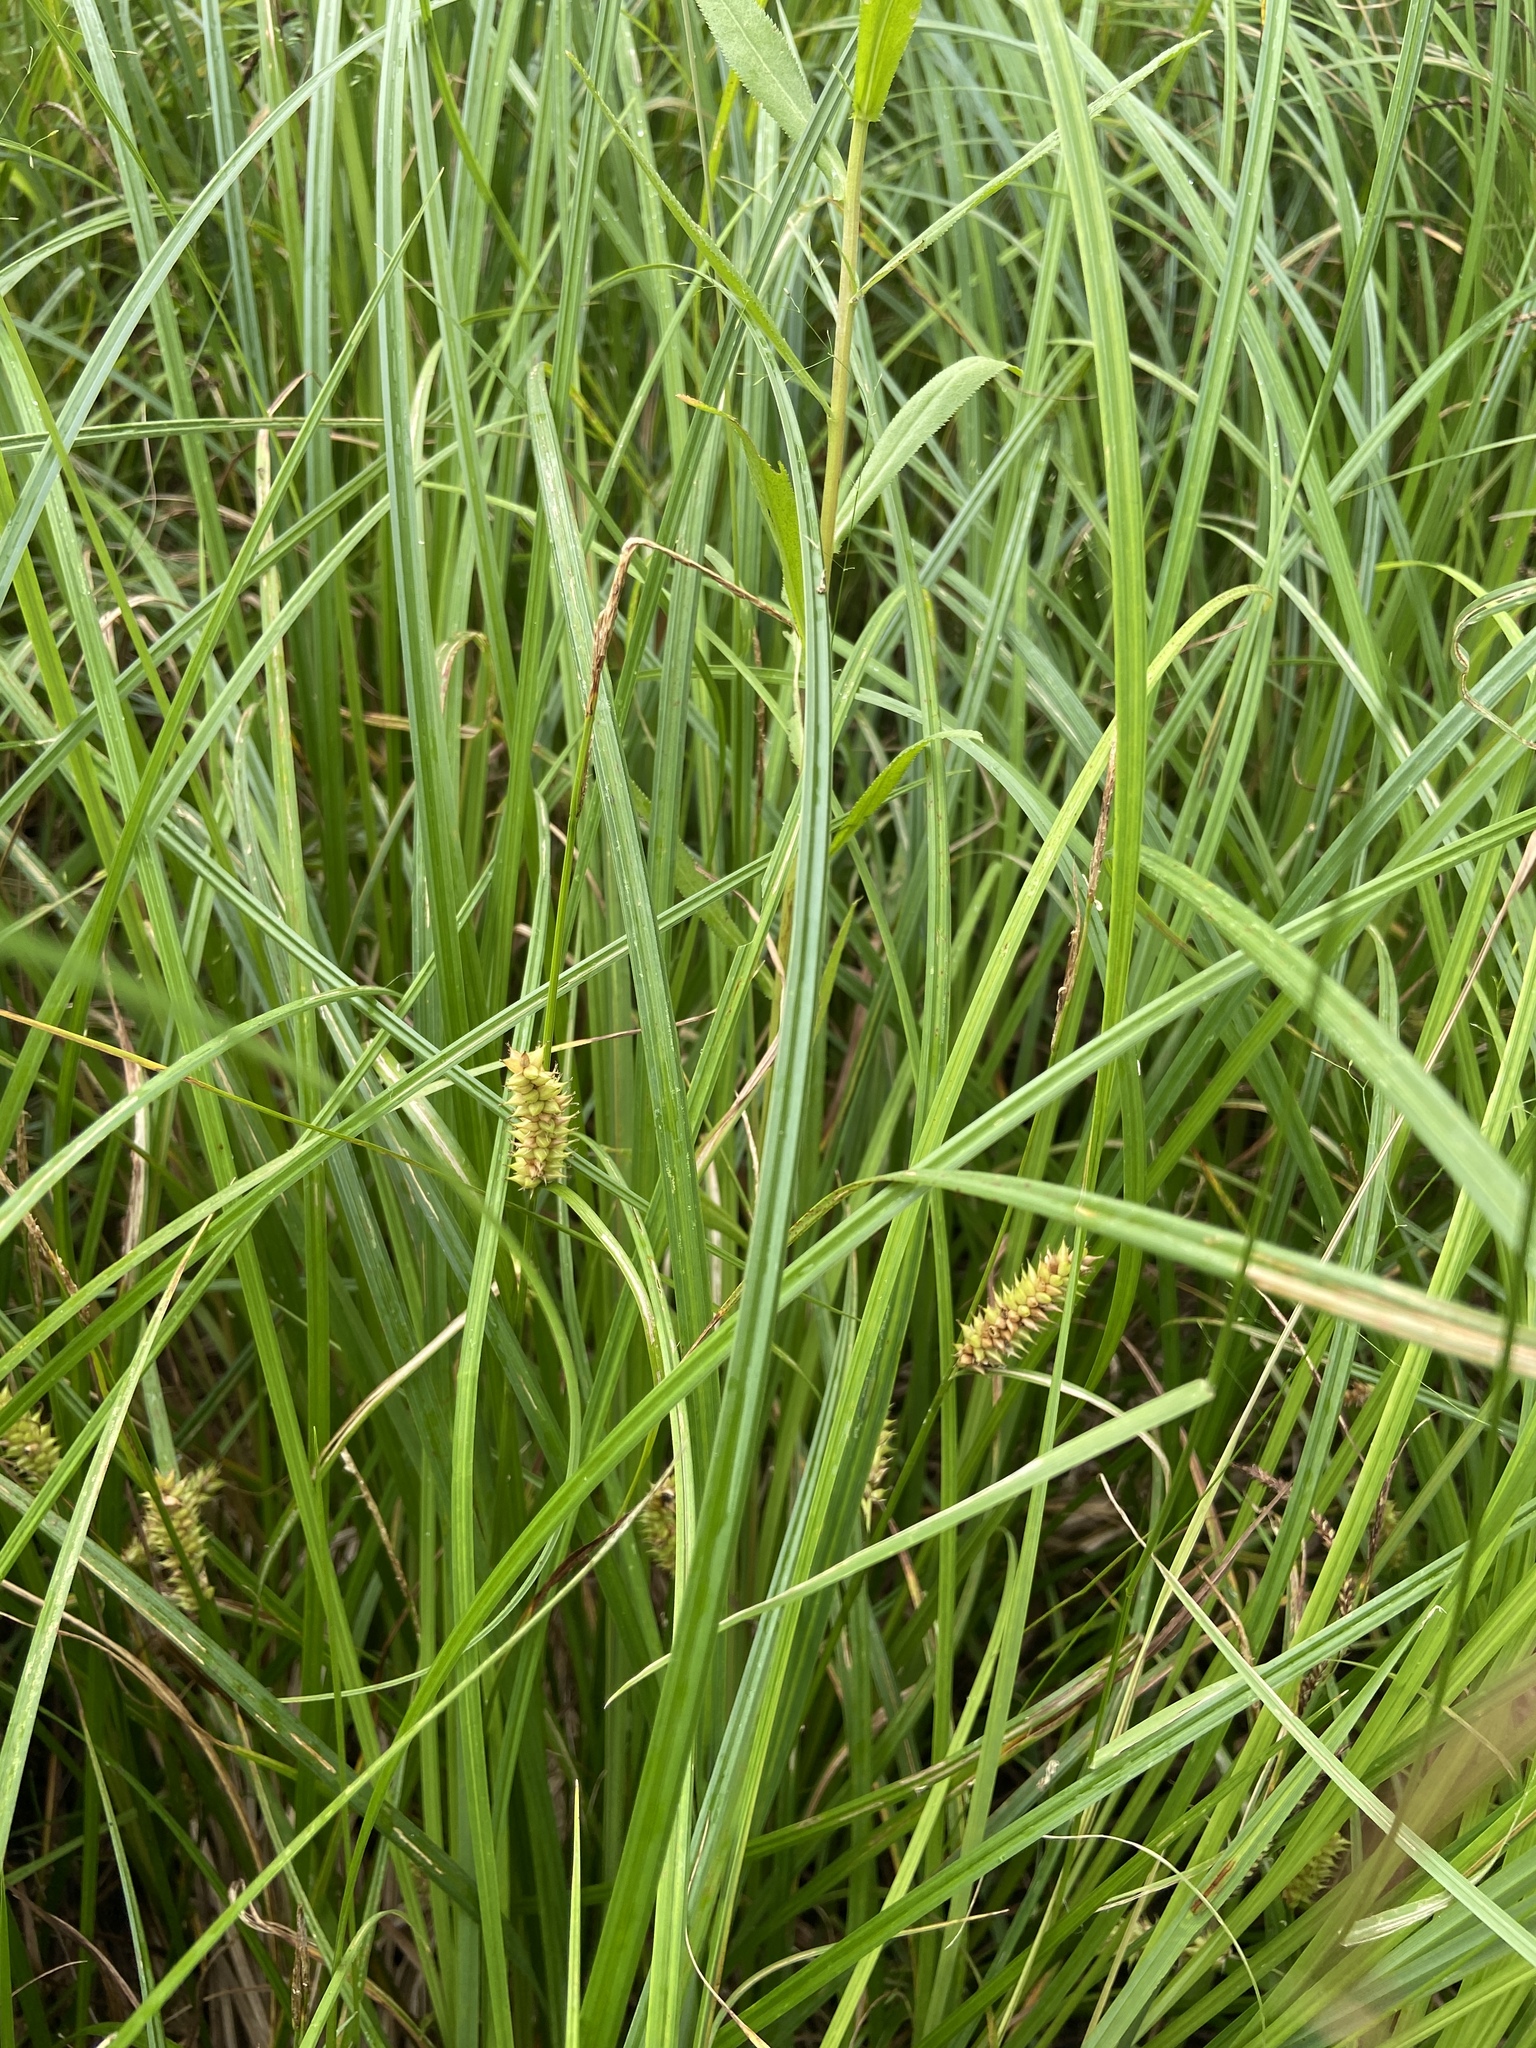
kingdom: Plantae
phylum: Tracheophyta
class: Liliopsida
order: Poales
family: Cyperaceae
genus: Carex
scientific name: Carex vesicaria
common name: Bladder-sedge
